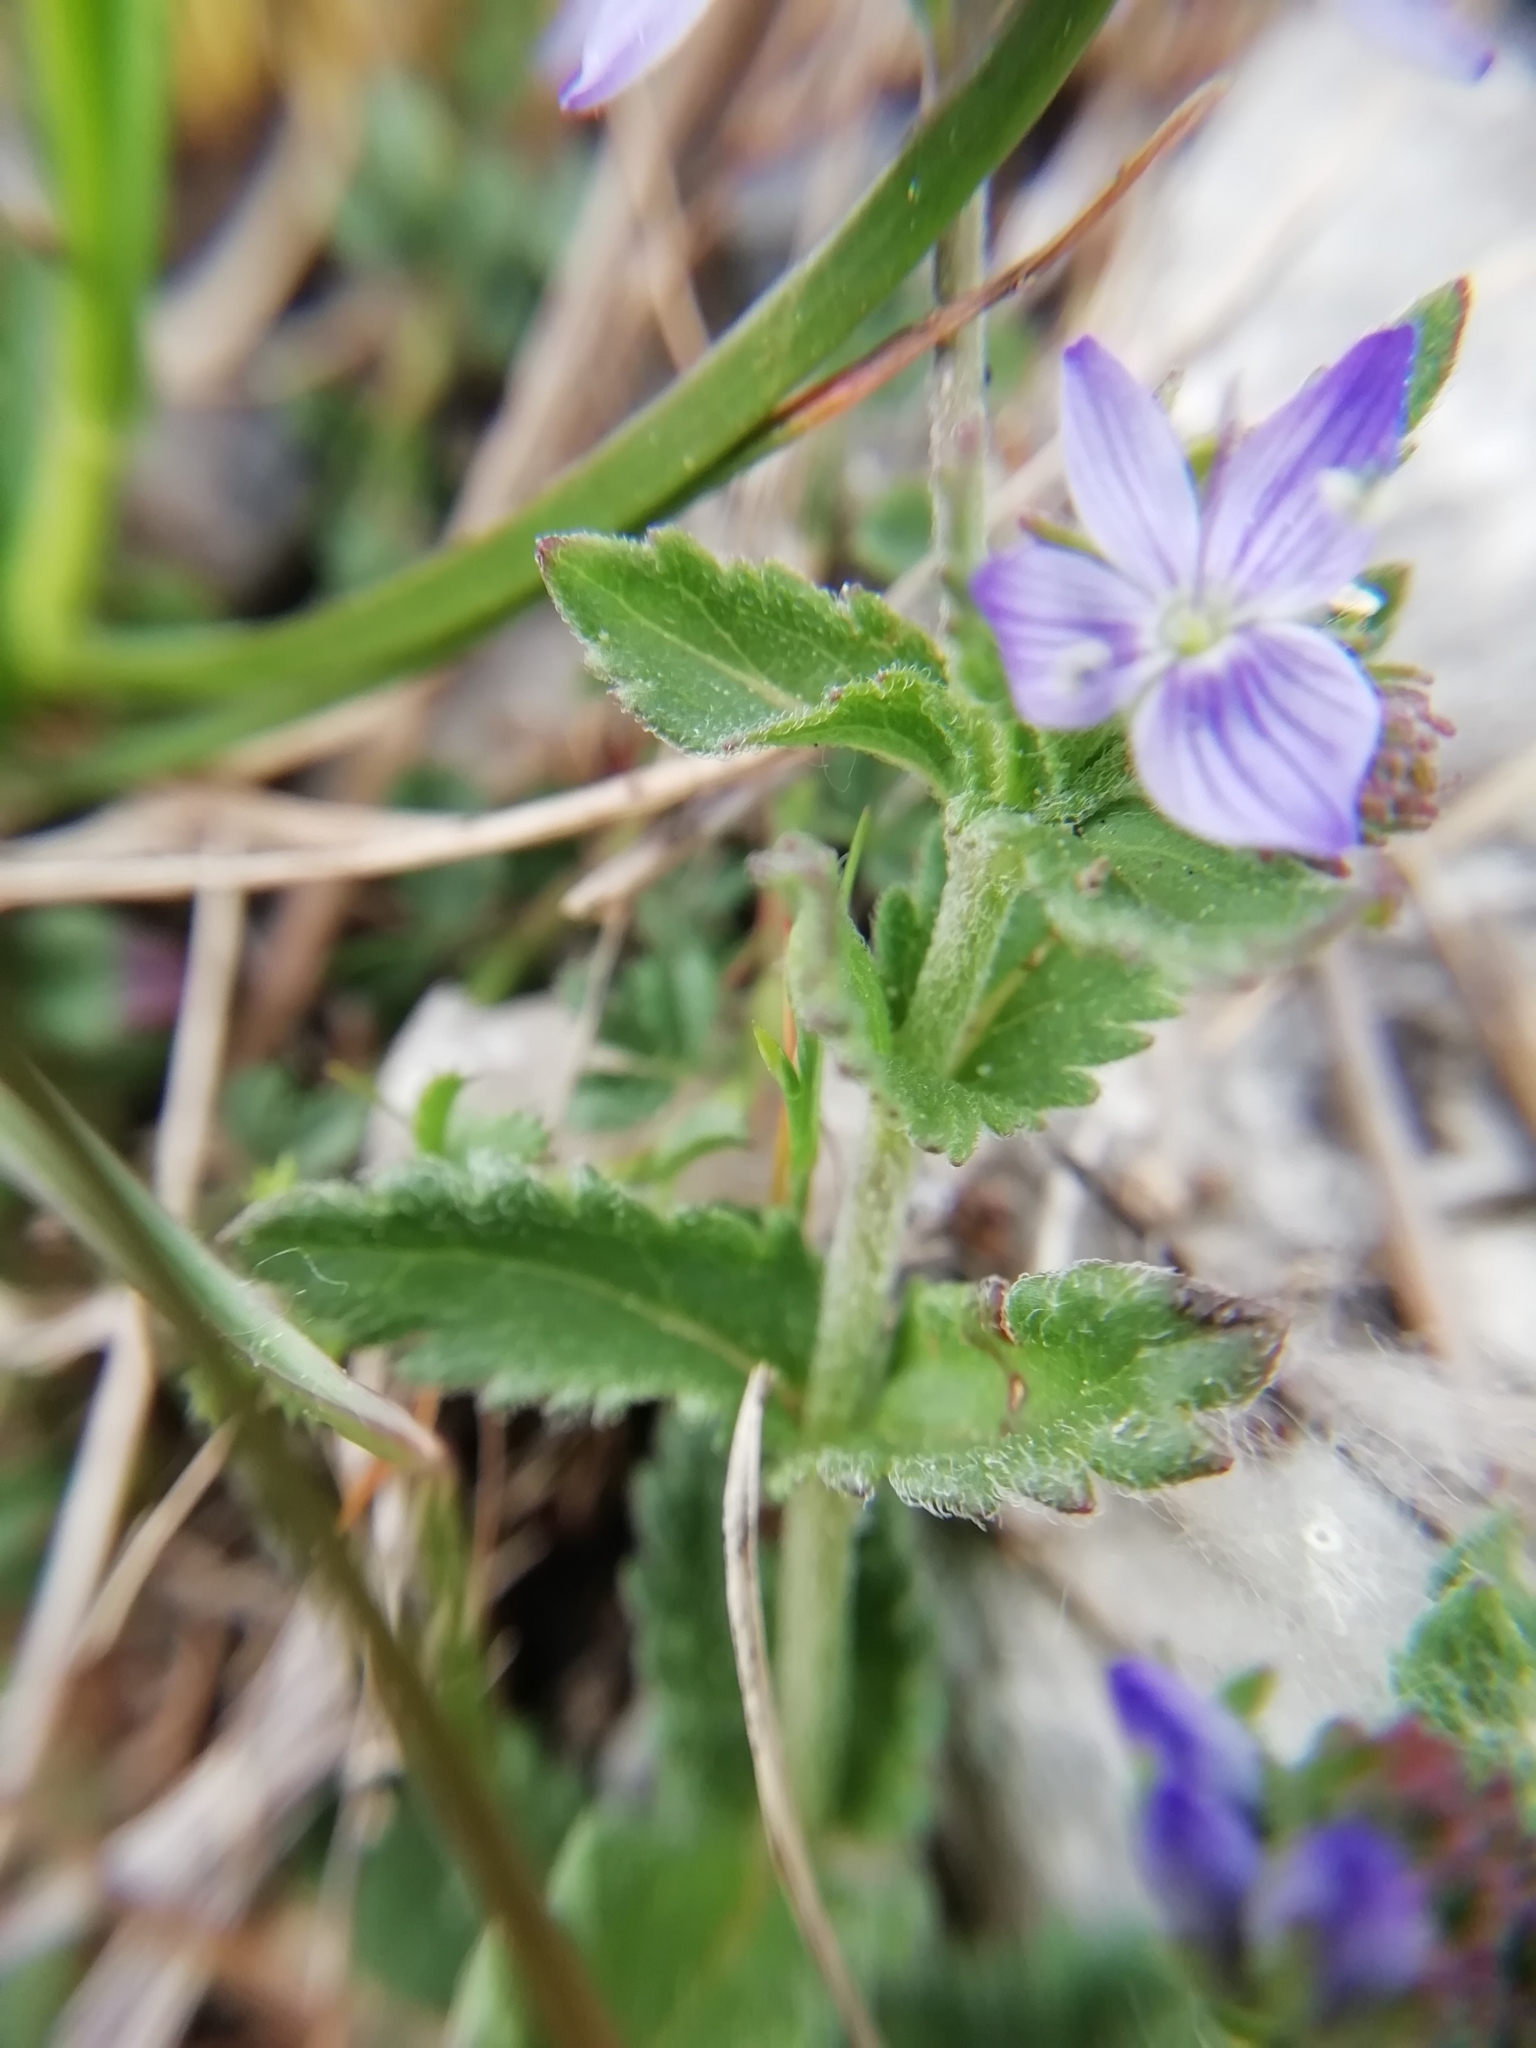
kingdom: Plantae
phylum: Tracheophyta
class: Magnoliopsida
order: Lamiales
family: Plantaginaceae
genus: Veronica
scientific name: Veronica orsiniana
